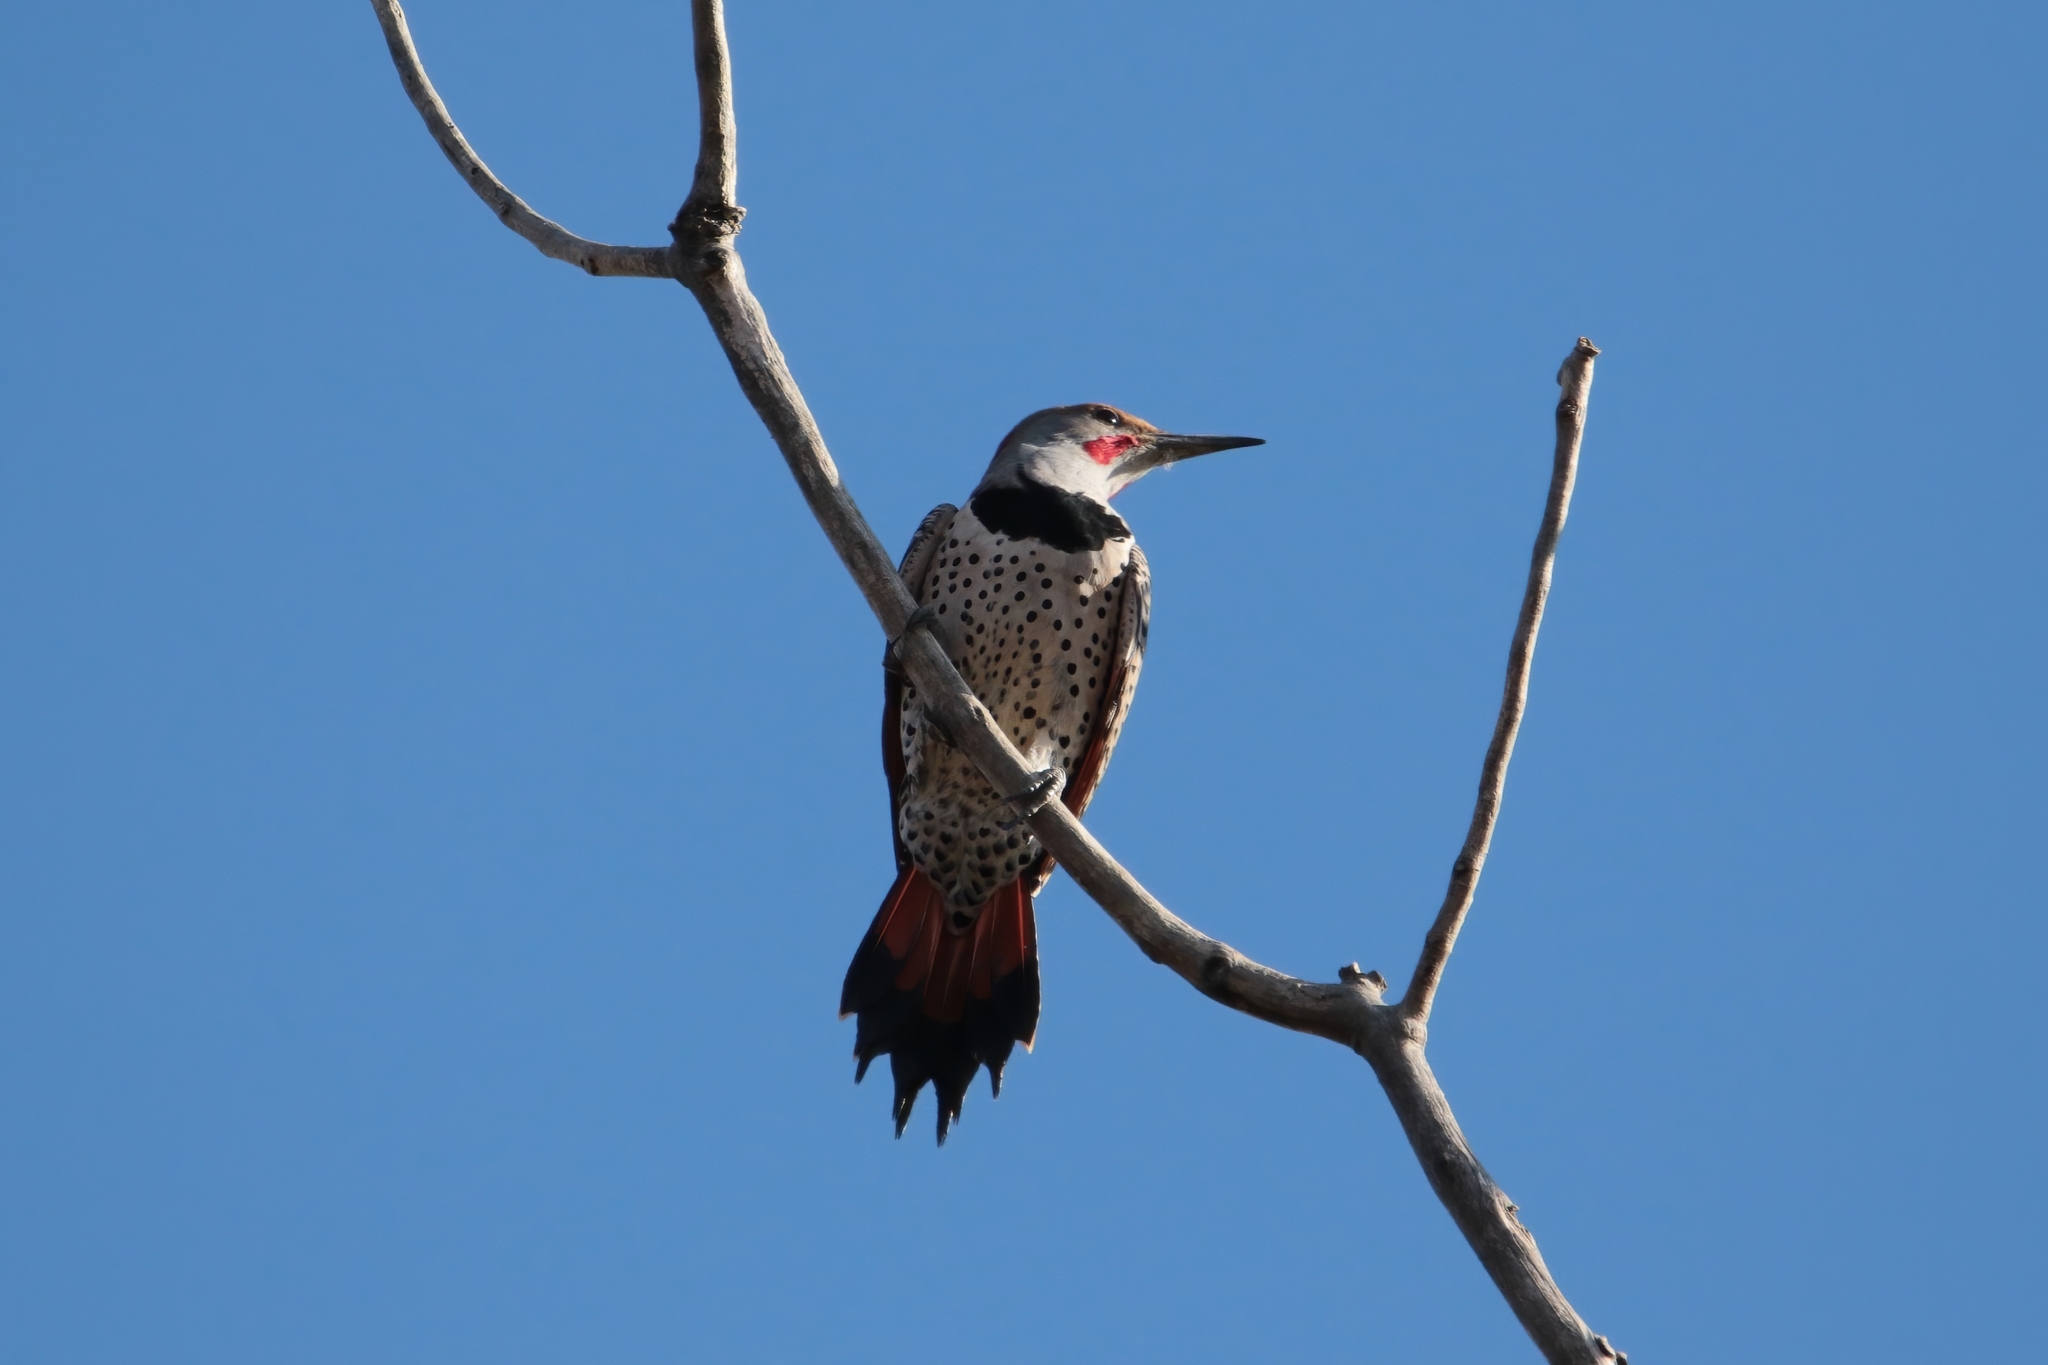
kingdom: Animalia
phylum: Chordata
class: Aves
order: Piciformes
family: Picidae
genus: Colaptes
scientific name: Colaptes auratus
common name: Northern flicker
